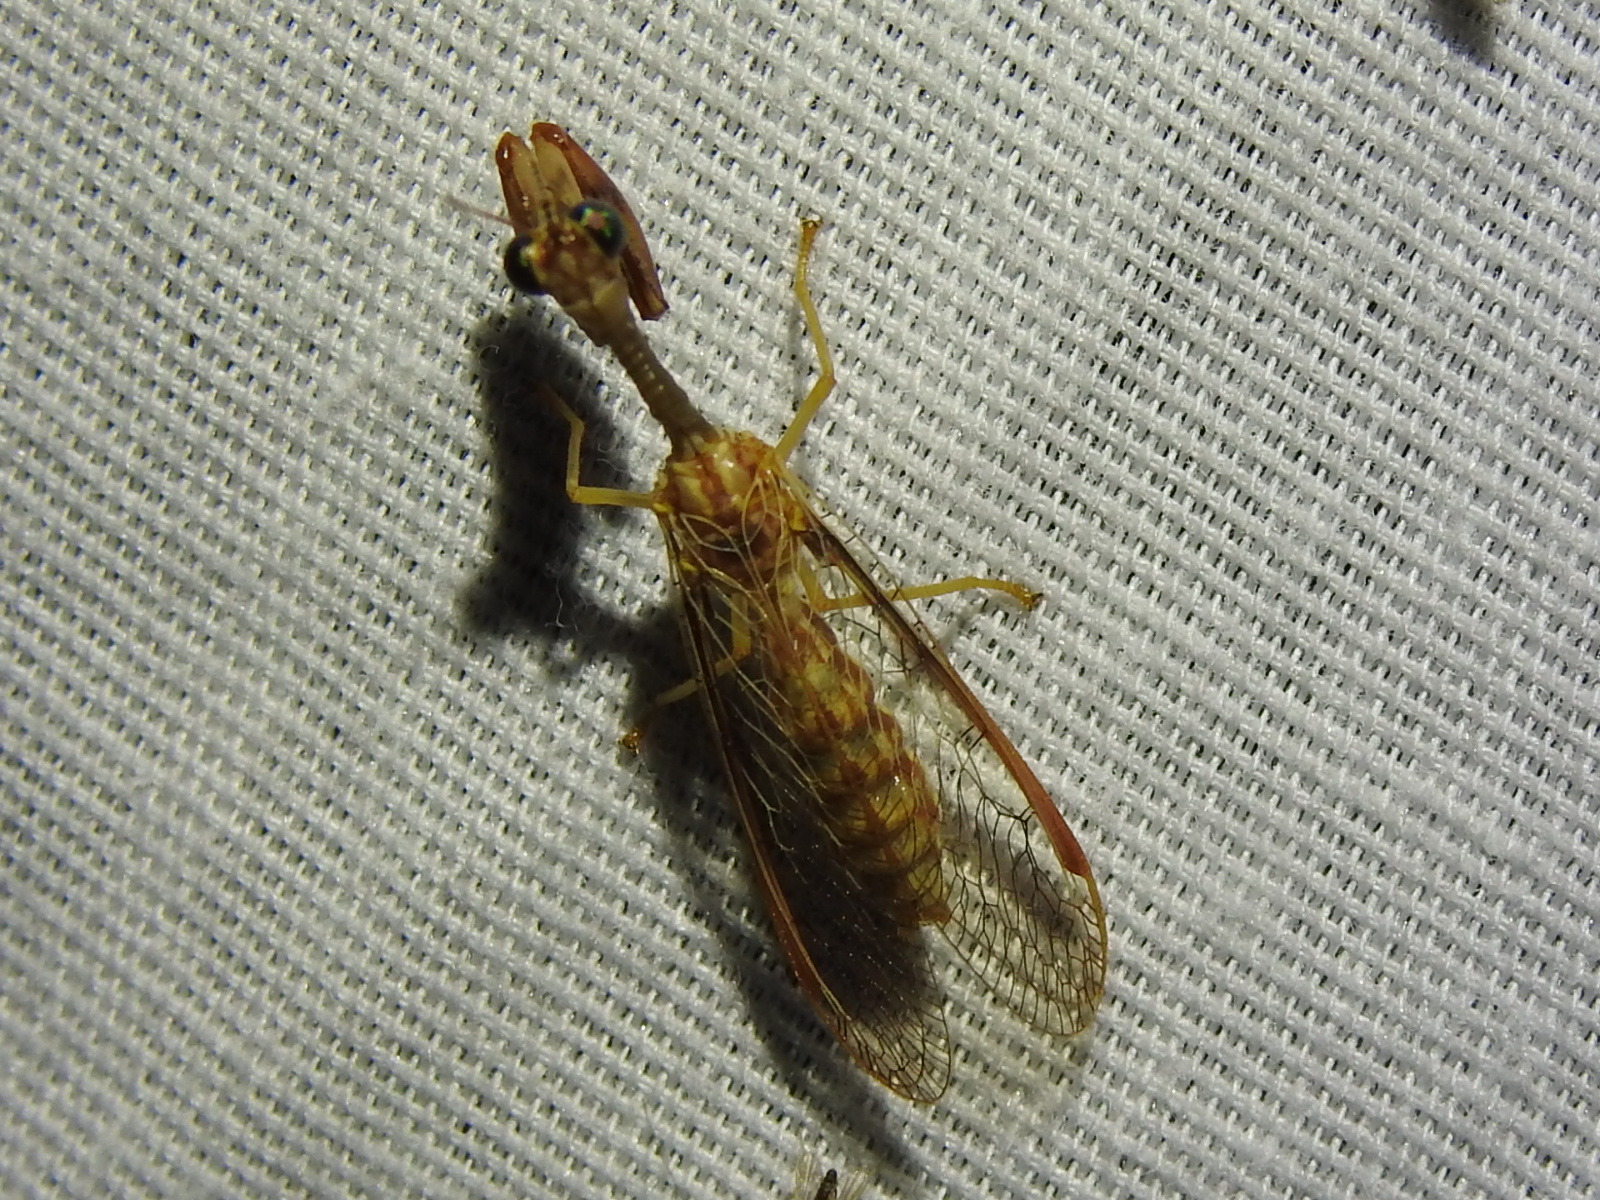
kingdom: Animalia
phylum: Arthropoda
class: Insecta
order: Neuroptera
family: Mantispidae
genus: Dicromantispa
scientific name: Dicromantispa sayi
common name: Say's mantidfly
